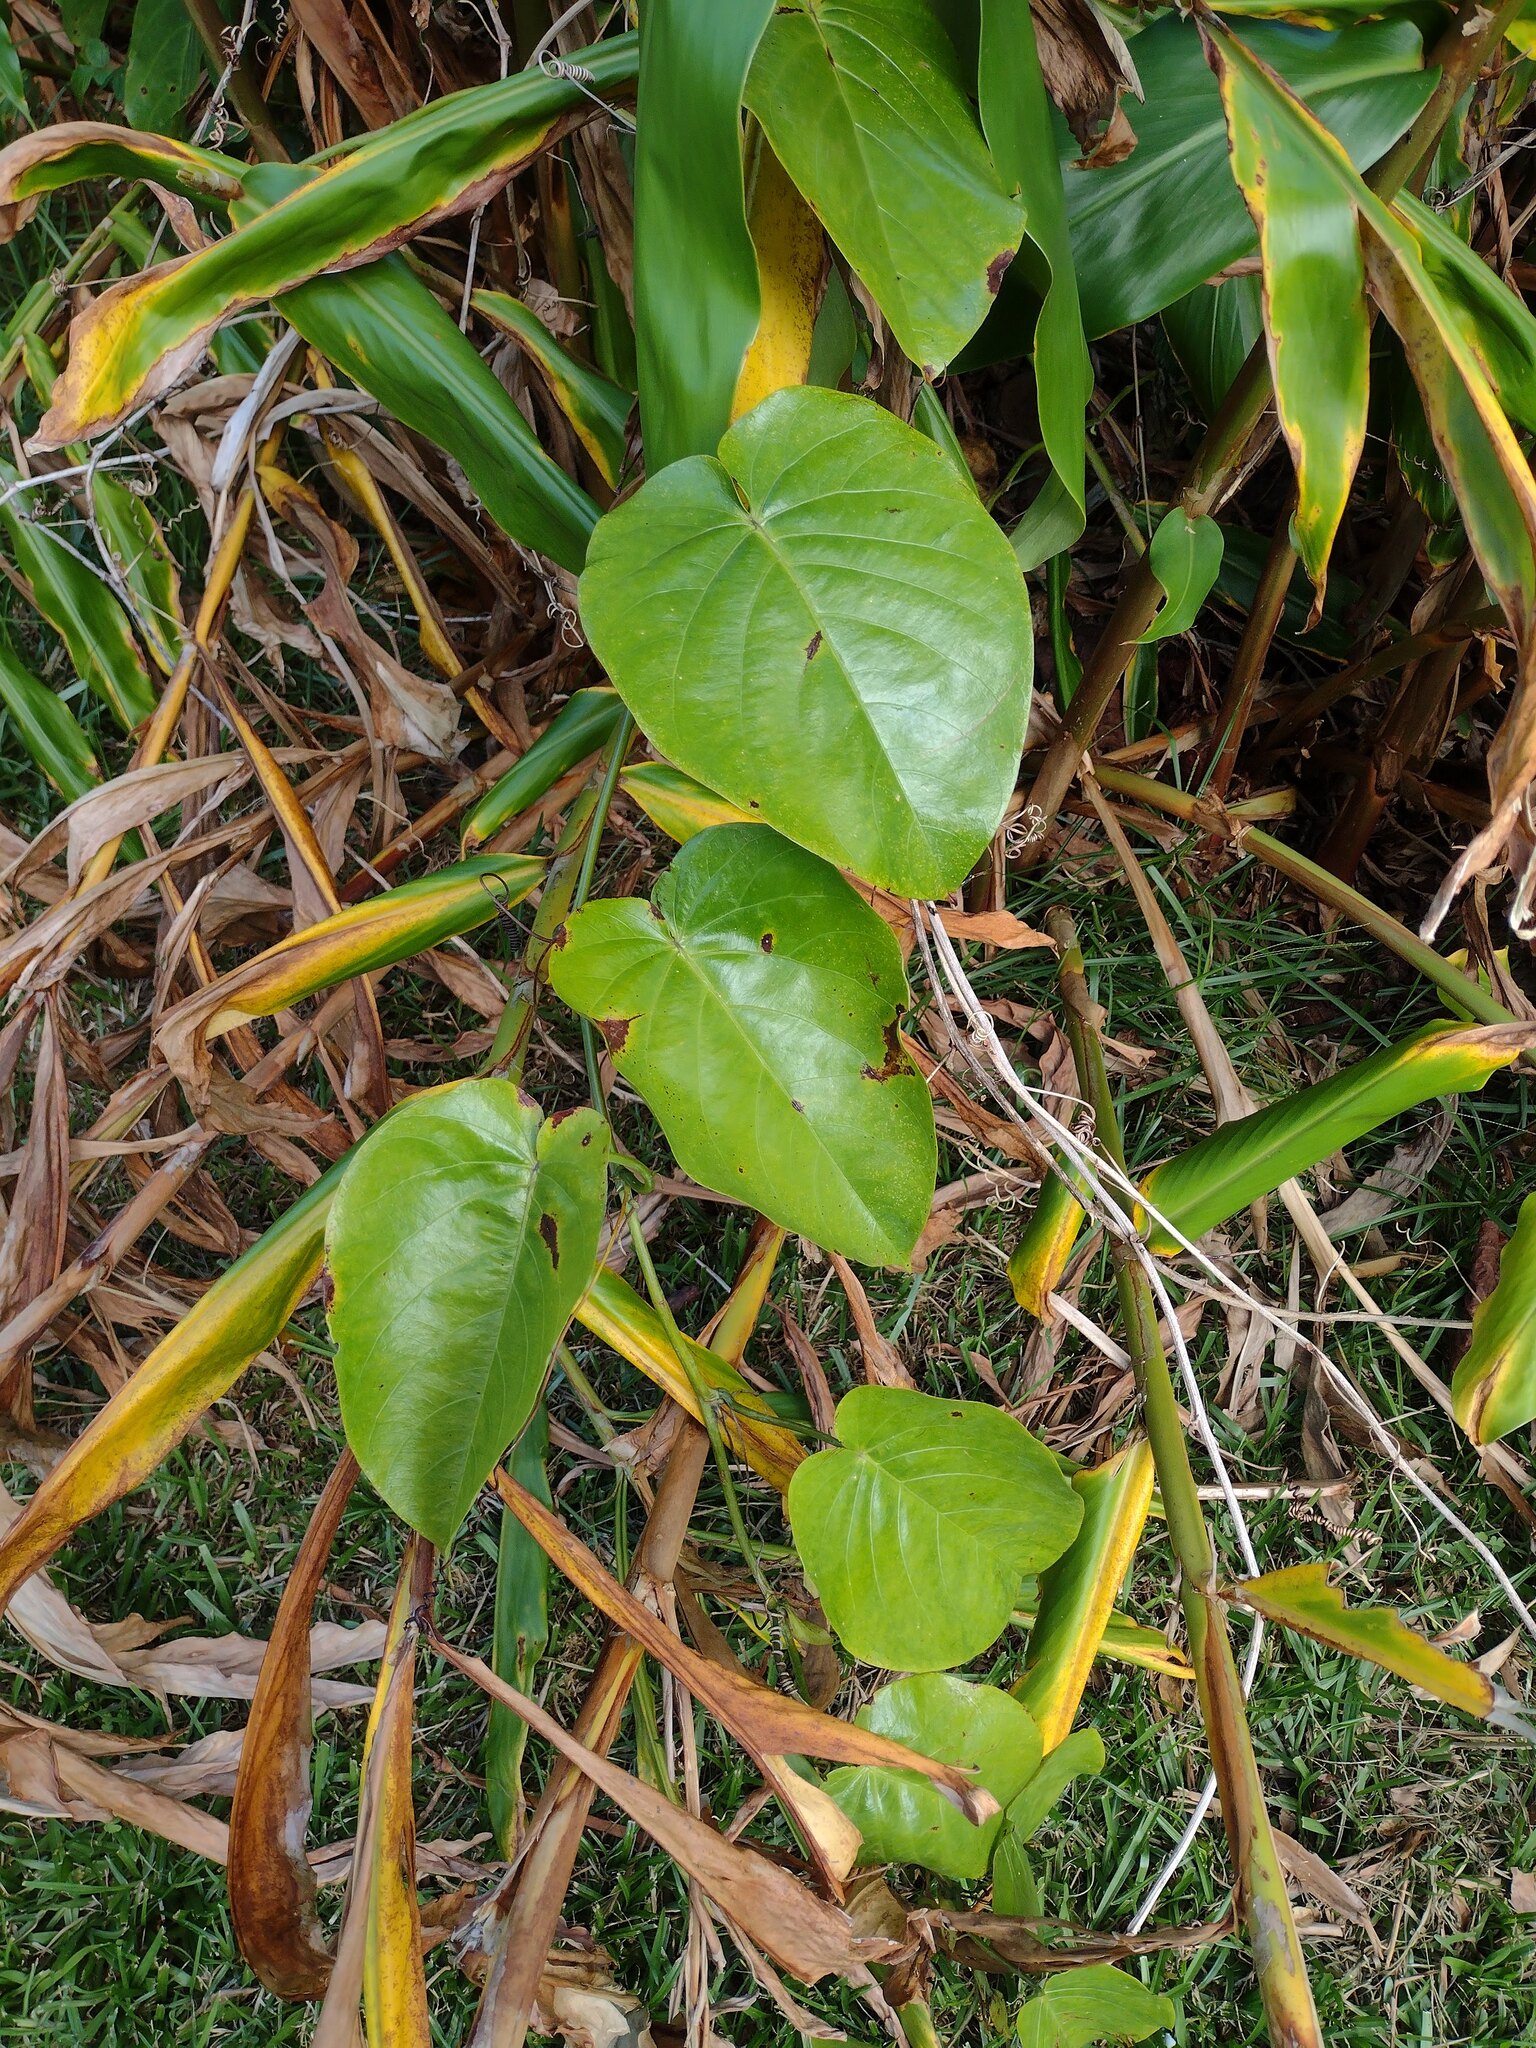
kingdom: Plantae
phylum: Tracheophyta
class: Magnoliopsida
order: Malpighiales
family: Passifloraceae
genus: Passiflora
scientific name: Passiflora ligularis
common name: Sweet granadilla
